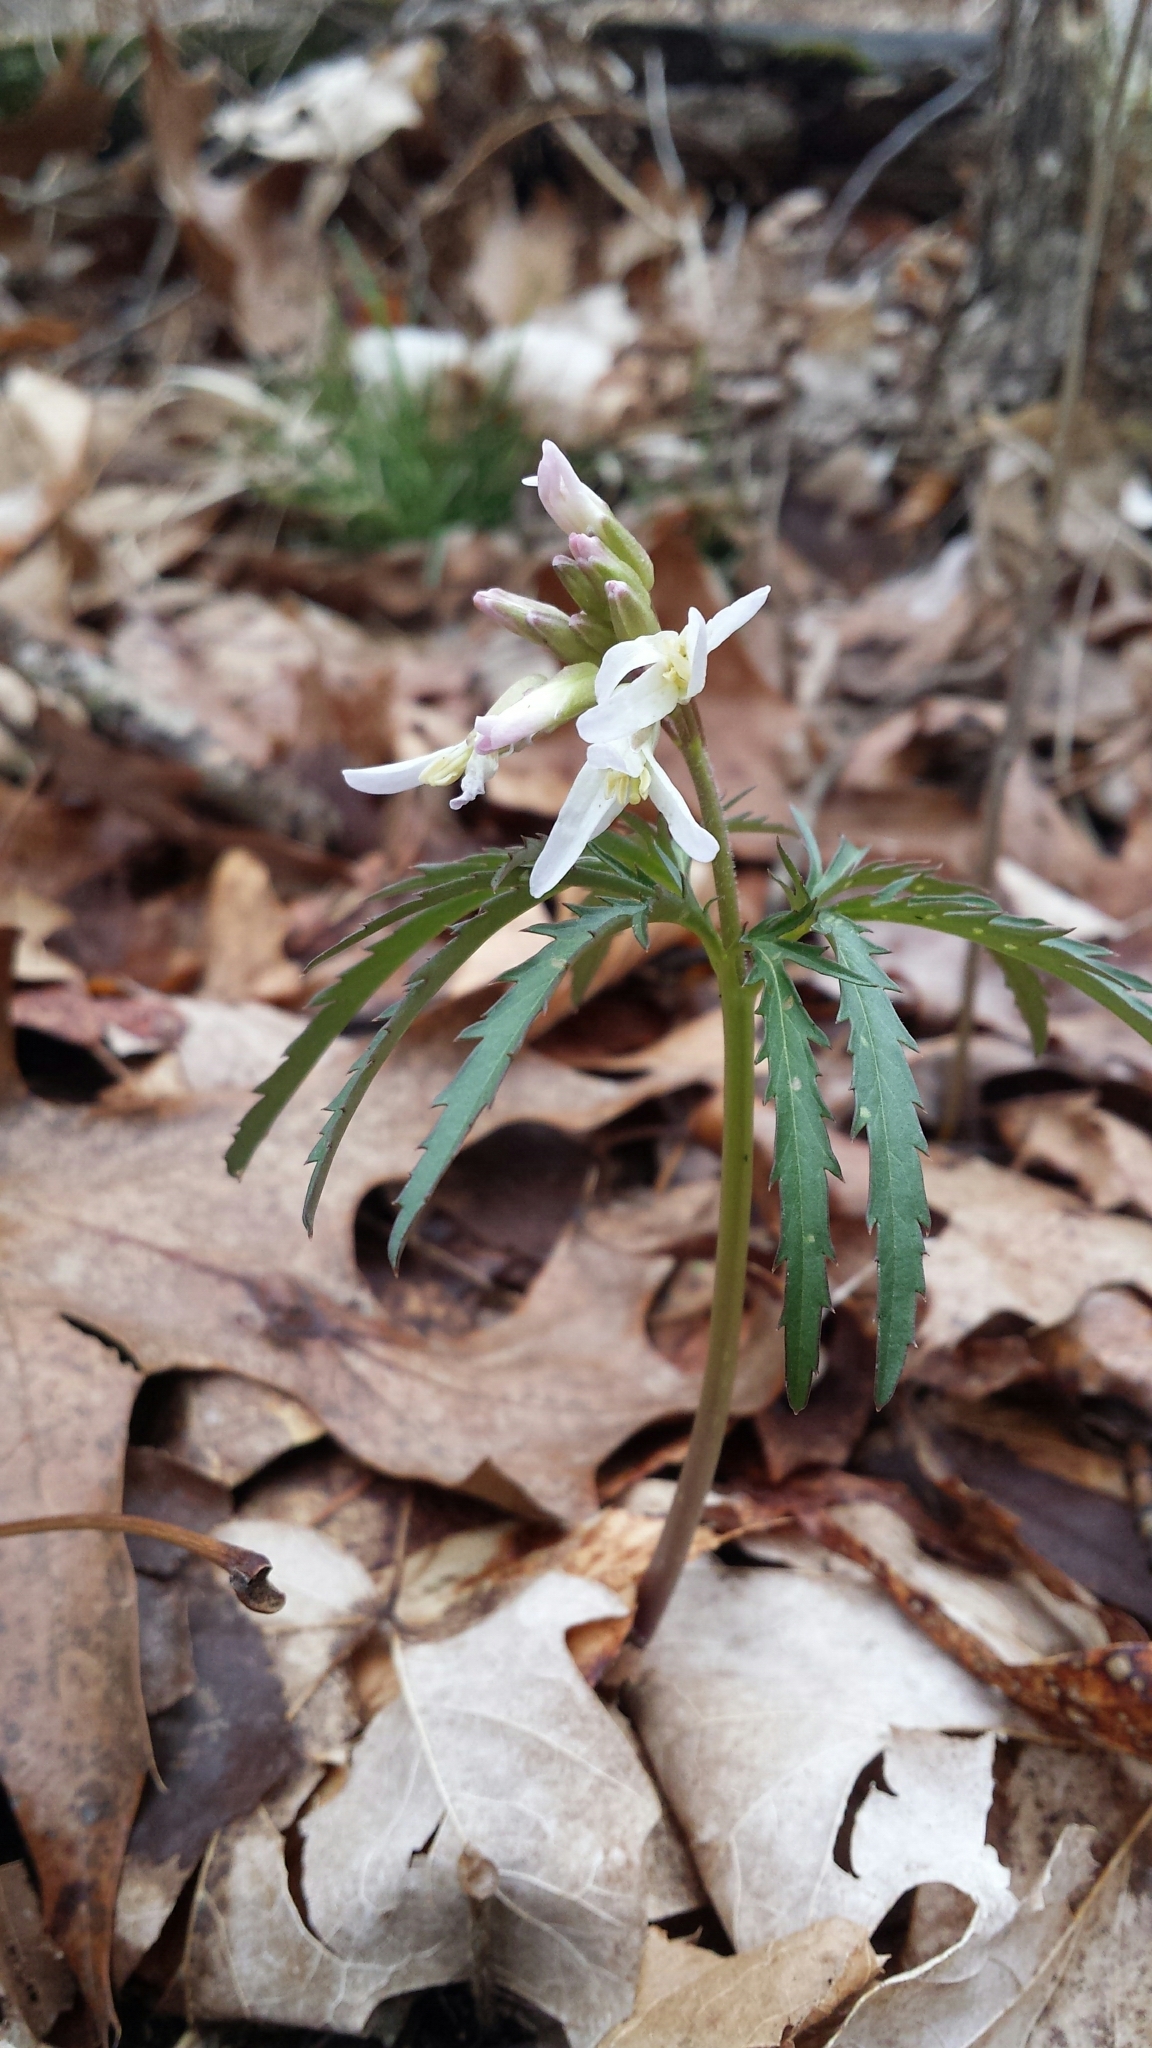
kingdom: Plantae
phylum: Tracheophyta
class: Magnoliopsida
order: Brassicales
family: Brassicaceae
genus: Cardamine
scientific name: Cardamine concatenata
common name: Cut-leaf toothcup
